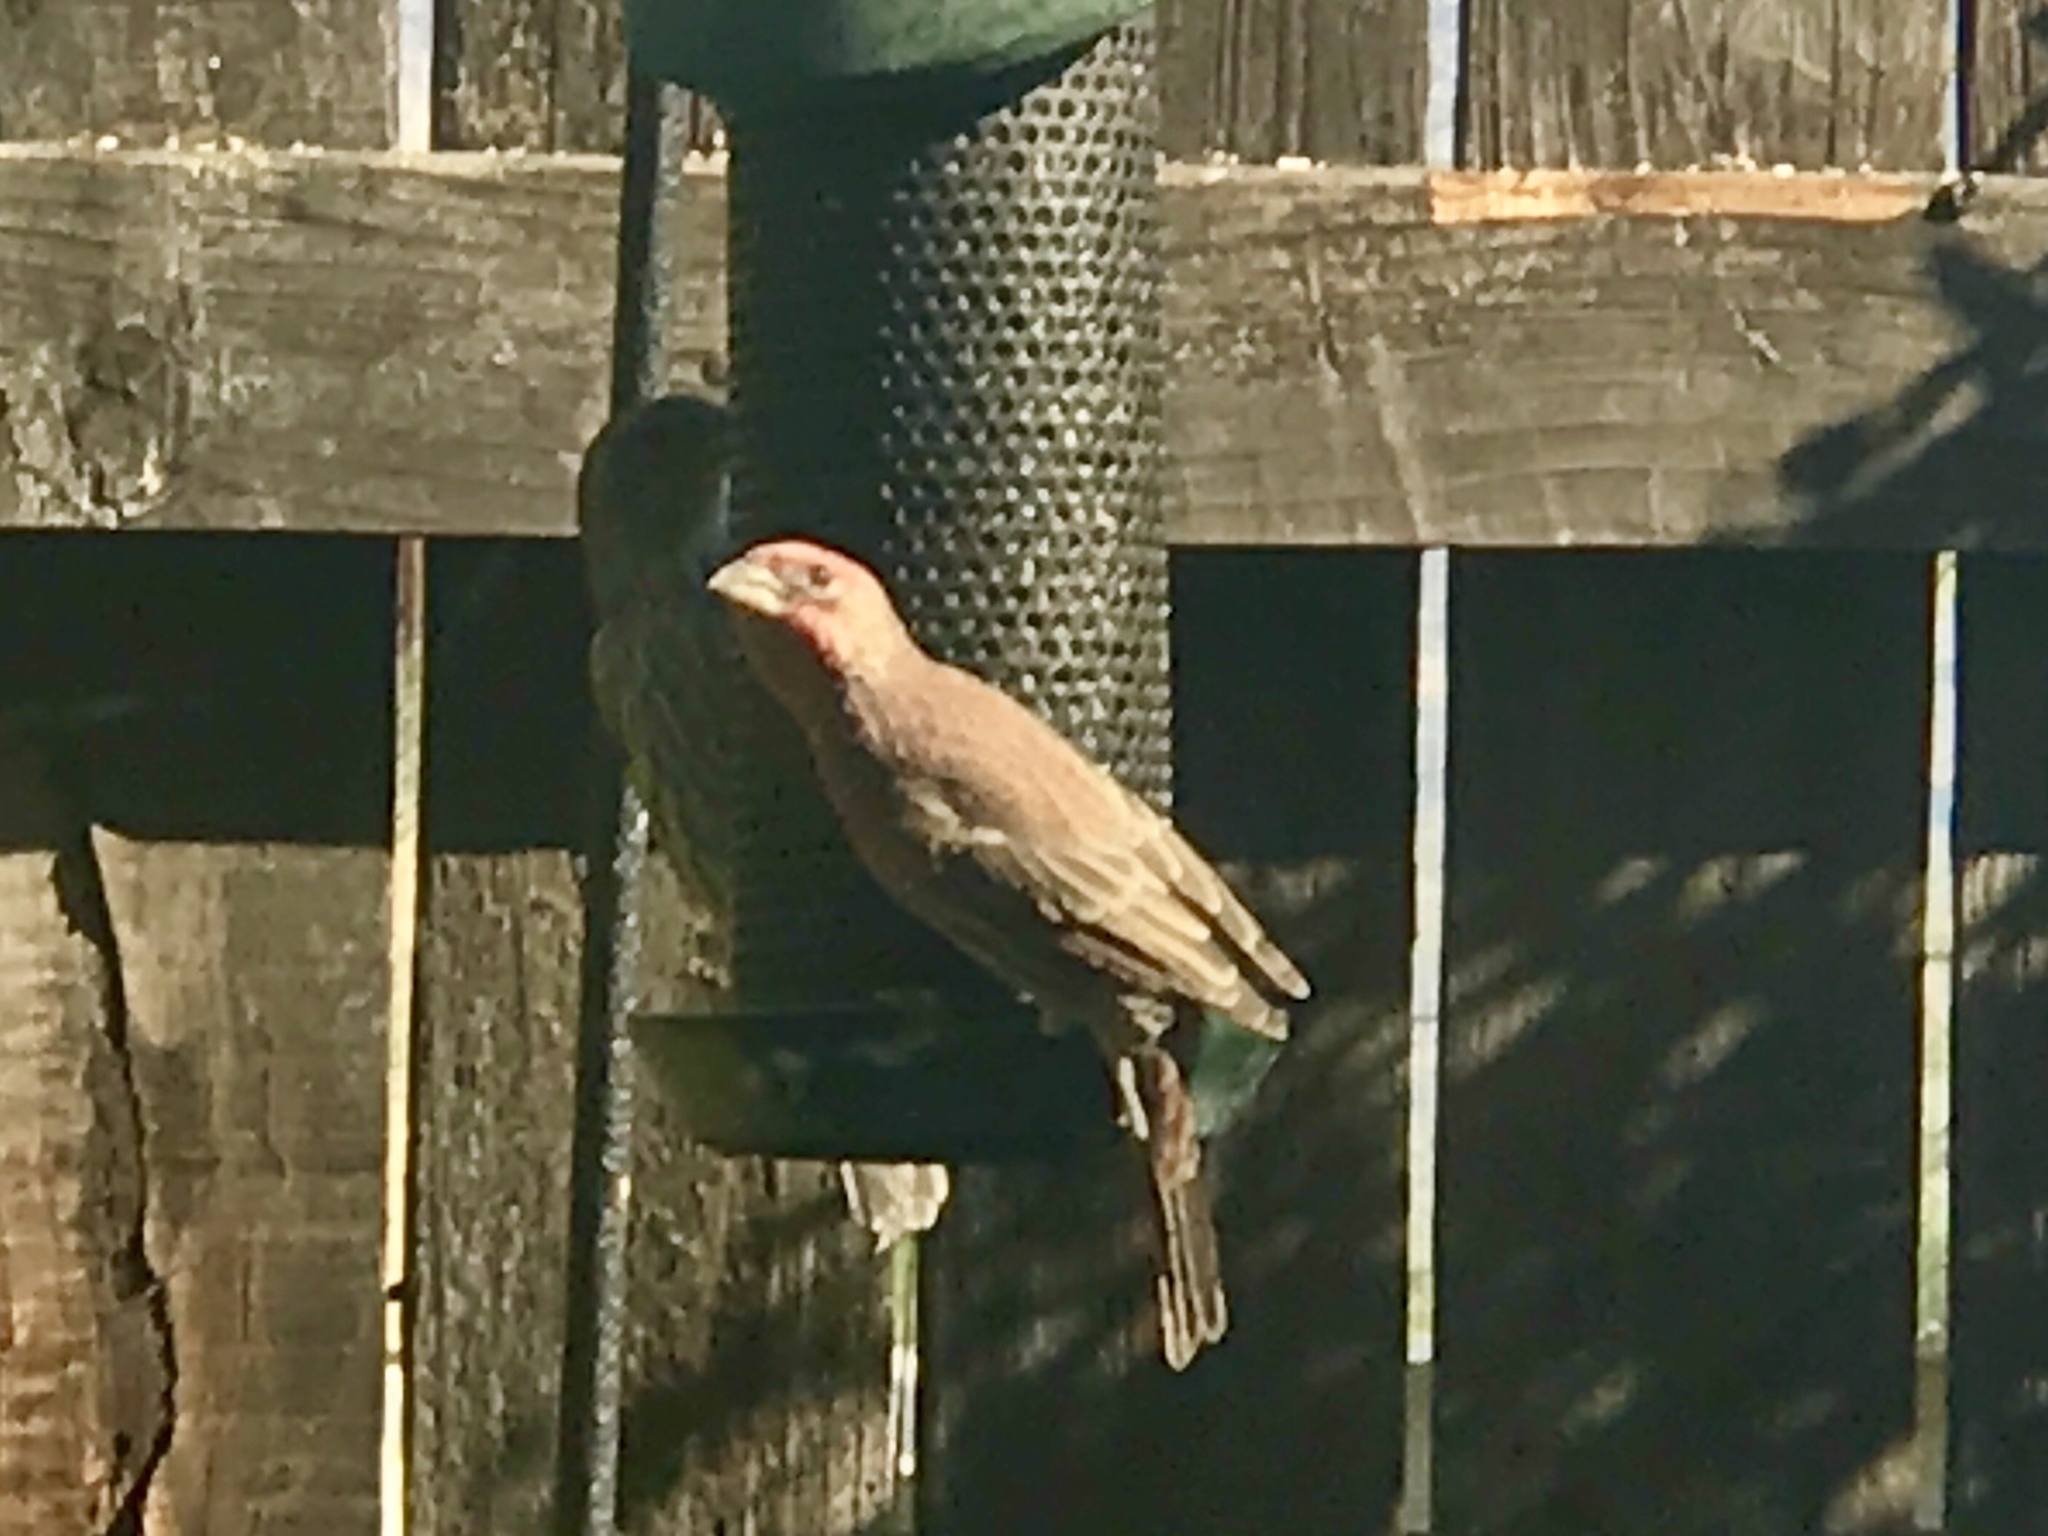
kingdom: Animalia
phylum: Chordata
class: Aves
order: Passeriformes
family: Fringillidae
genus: Haemorhous
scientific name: Haemorhous mexicanus
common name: House finch
